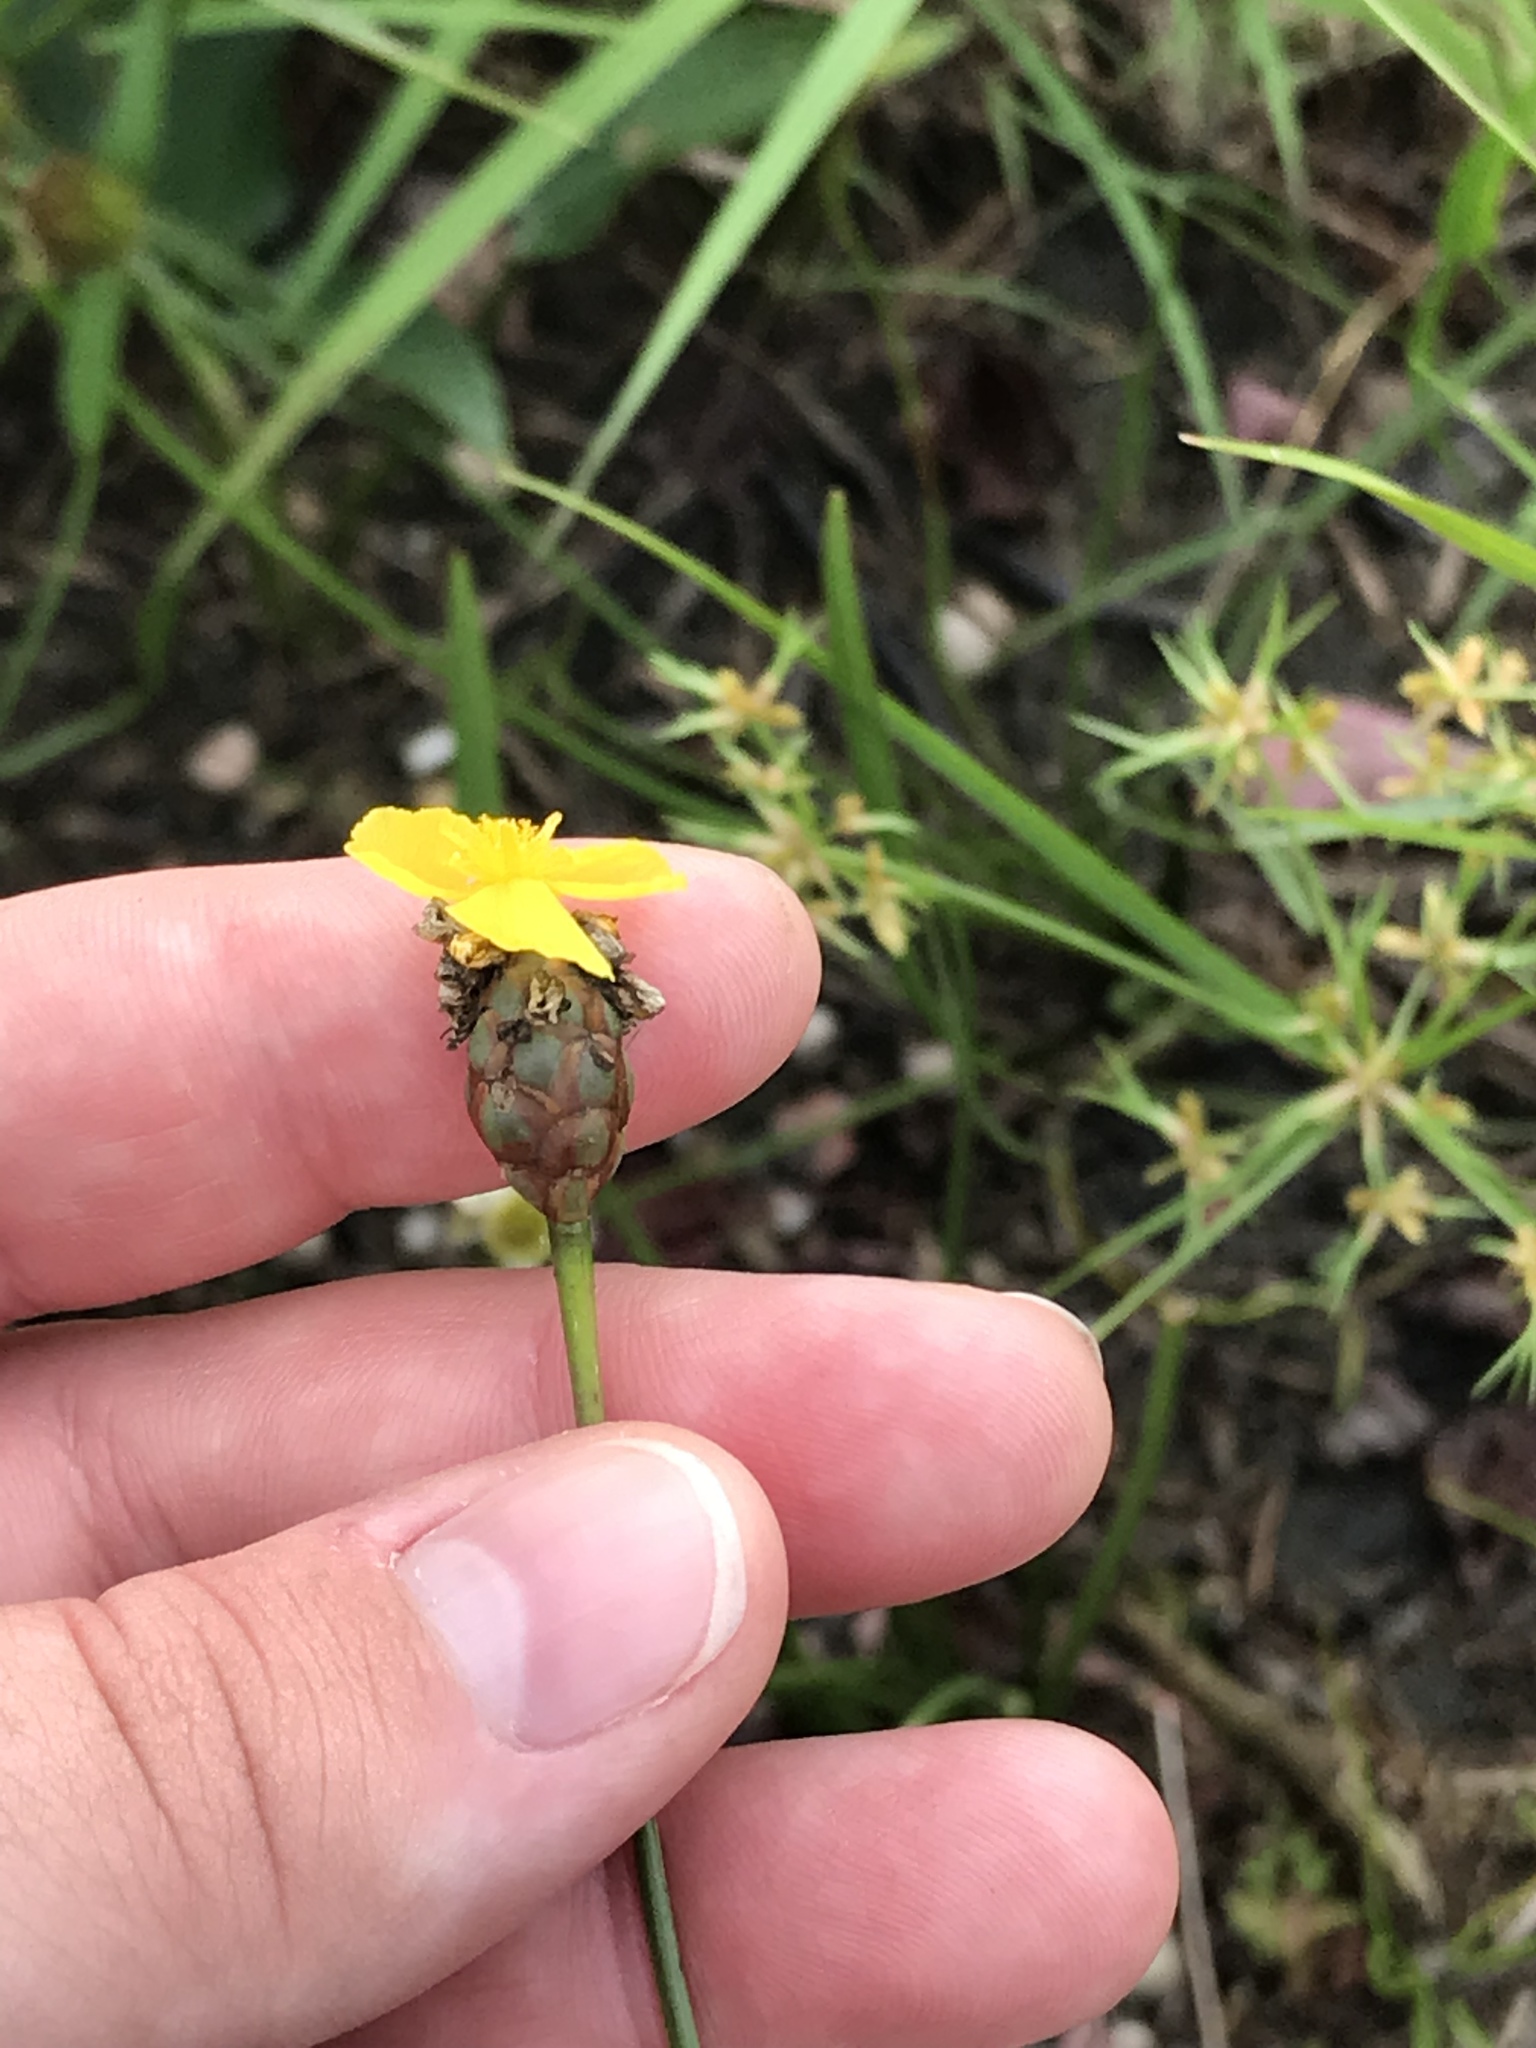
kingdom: Plantae
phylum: Tracheophyta
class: Liliopsida
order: Poales
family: Xyridaceae
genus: Xyris
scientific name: Xyris smalliana
